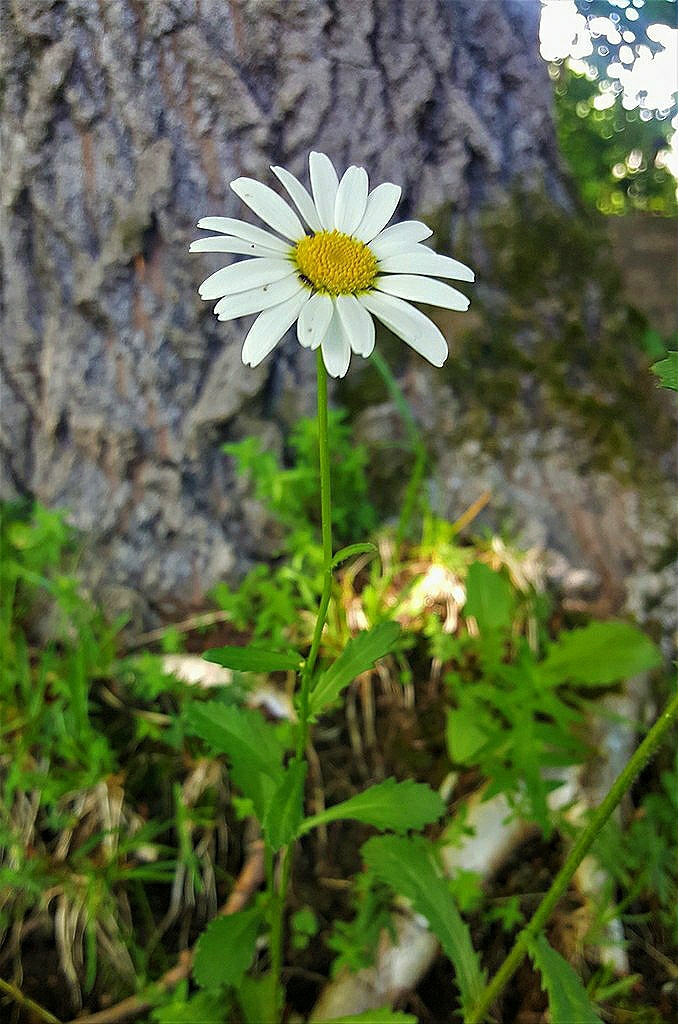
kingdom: Plantae
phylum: Tracheophyta
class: Magnoliopsida
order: Asterales
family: Asteraceae
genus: Leucanthemum
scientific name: Leucanthemum vulgare
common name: Oxeye daisy
